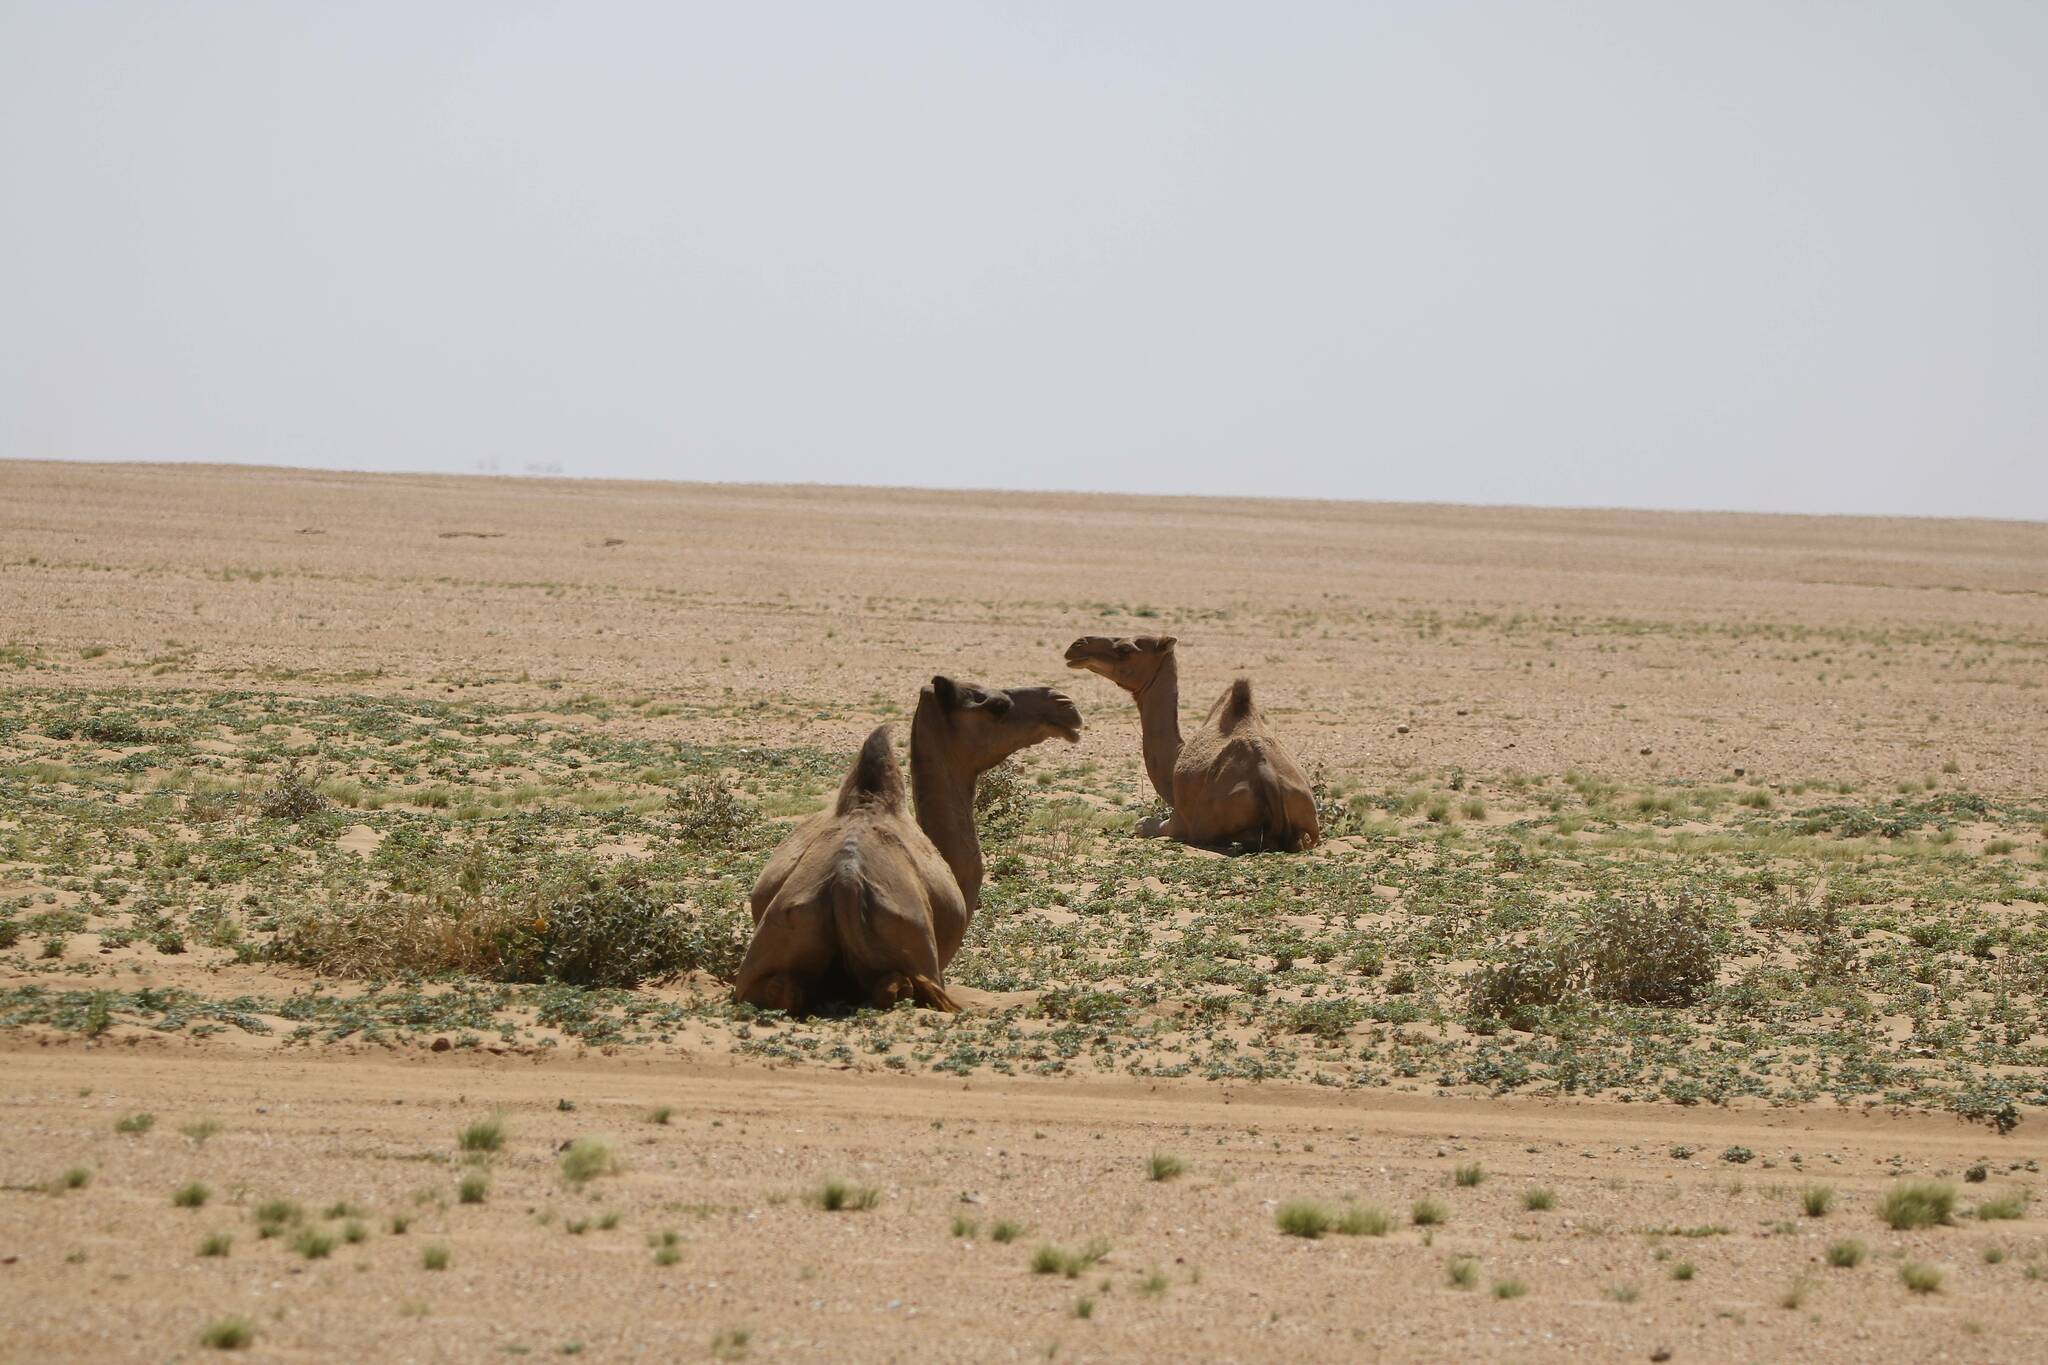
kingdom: Animalia
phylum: Chordata
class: Mammalia
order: Artiodactyla
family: Camelidae
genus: Camelus
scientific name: Camelus dromedarius
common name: One-humped camel
